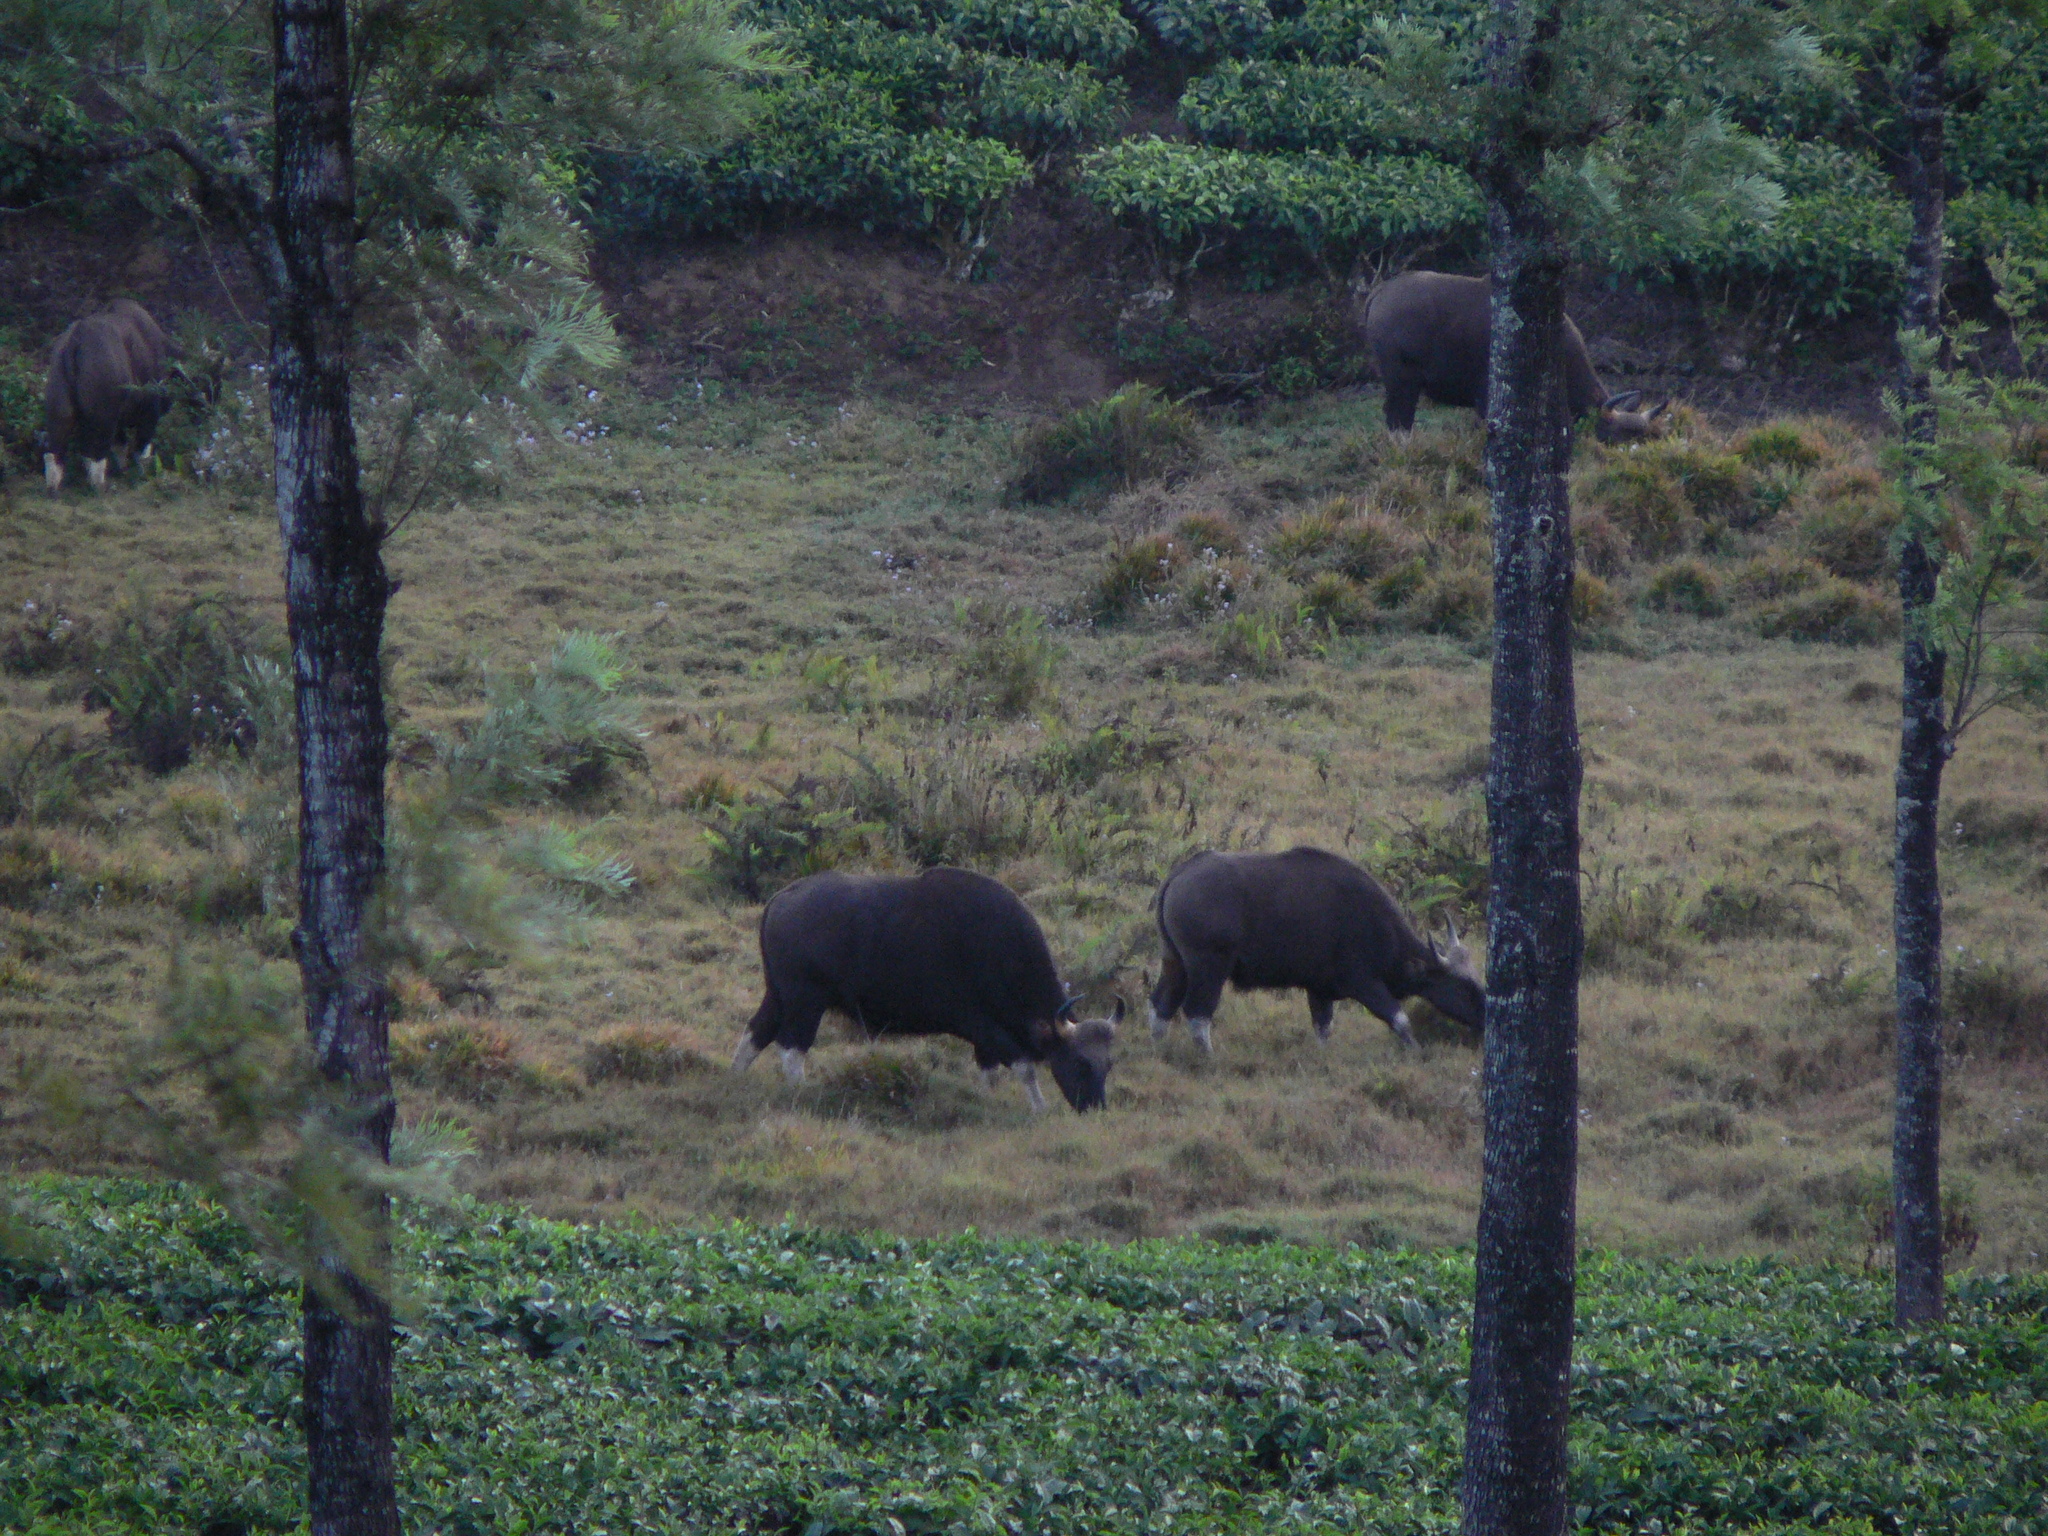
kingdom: Animalia
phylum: Chordata
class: Mammalia
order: Artiodactyla
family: Bovidae
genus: Bos
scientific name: Bos frontalis
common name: Gaur
